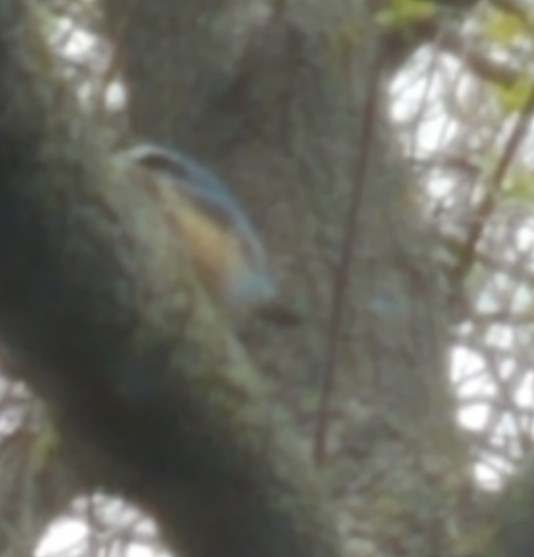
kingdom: Animalia
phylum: Chordata
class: Aves
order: Passeriformes
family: Sittidae
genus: Sitta
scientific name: Sitta canadensis
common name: Red-breasted nuthatch
